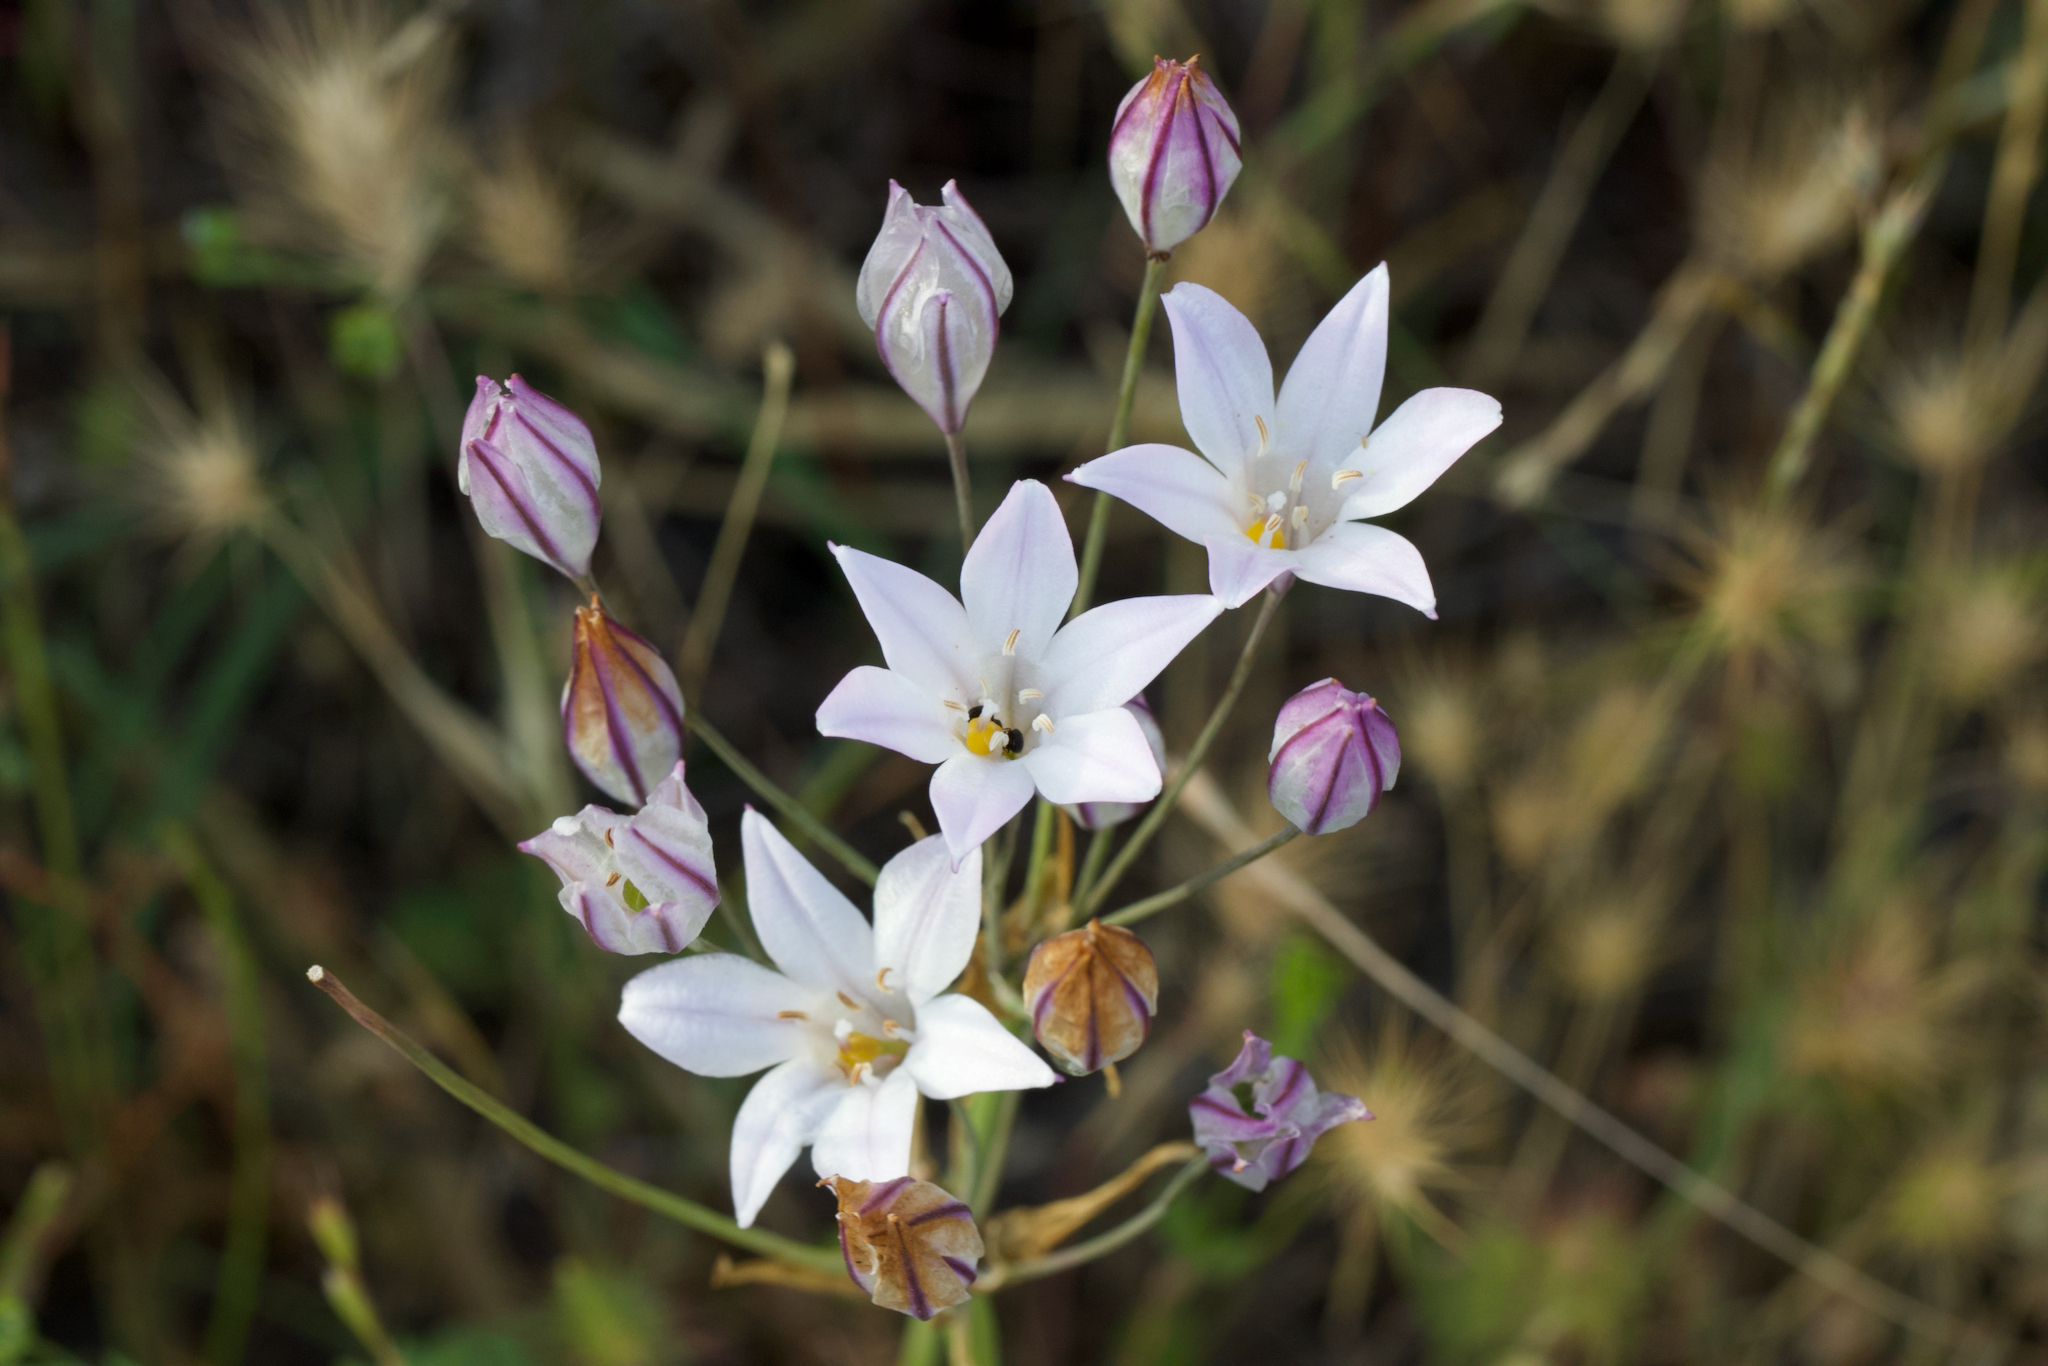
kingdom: Plantae
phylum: Tracheophyta
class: Liliopsida
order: Asparagales
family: Asparagaceae
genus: Triteleia
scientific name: Triteleia peduncularis
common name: Long-ray brodiaea
